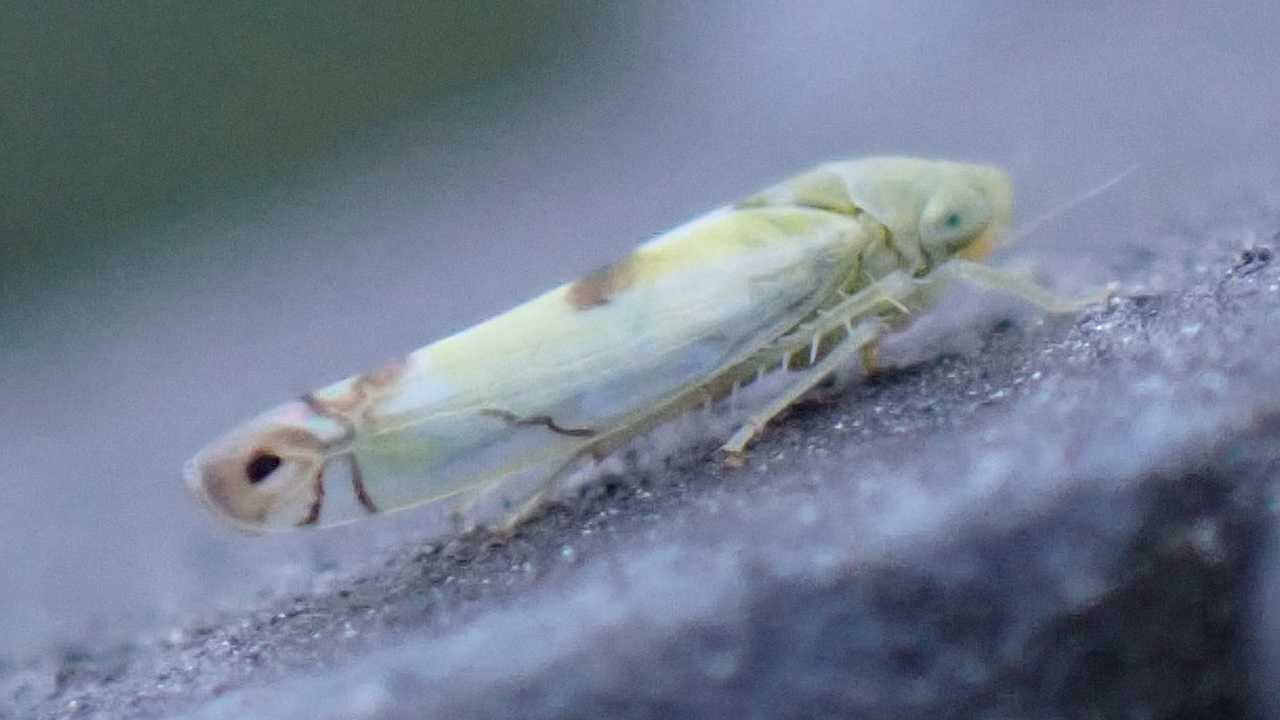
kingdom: Animalia
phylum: Arthropoda
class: Insecta
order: Hemiptera
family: Cicadellidae
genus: Zyginella
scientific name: Zyginella pulchra
